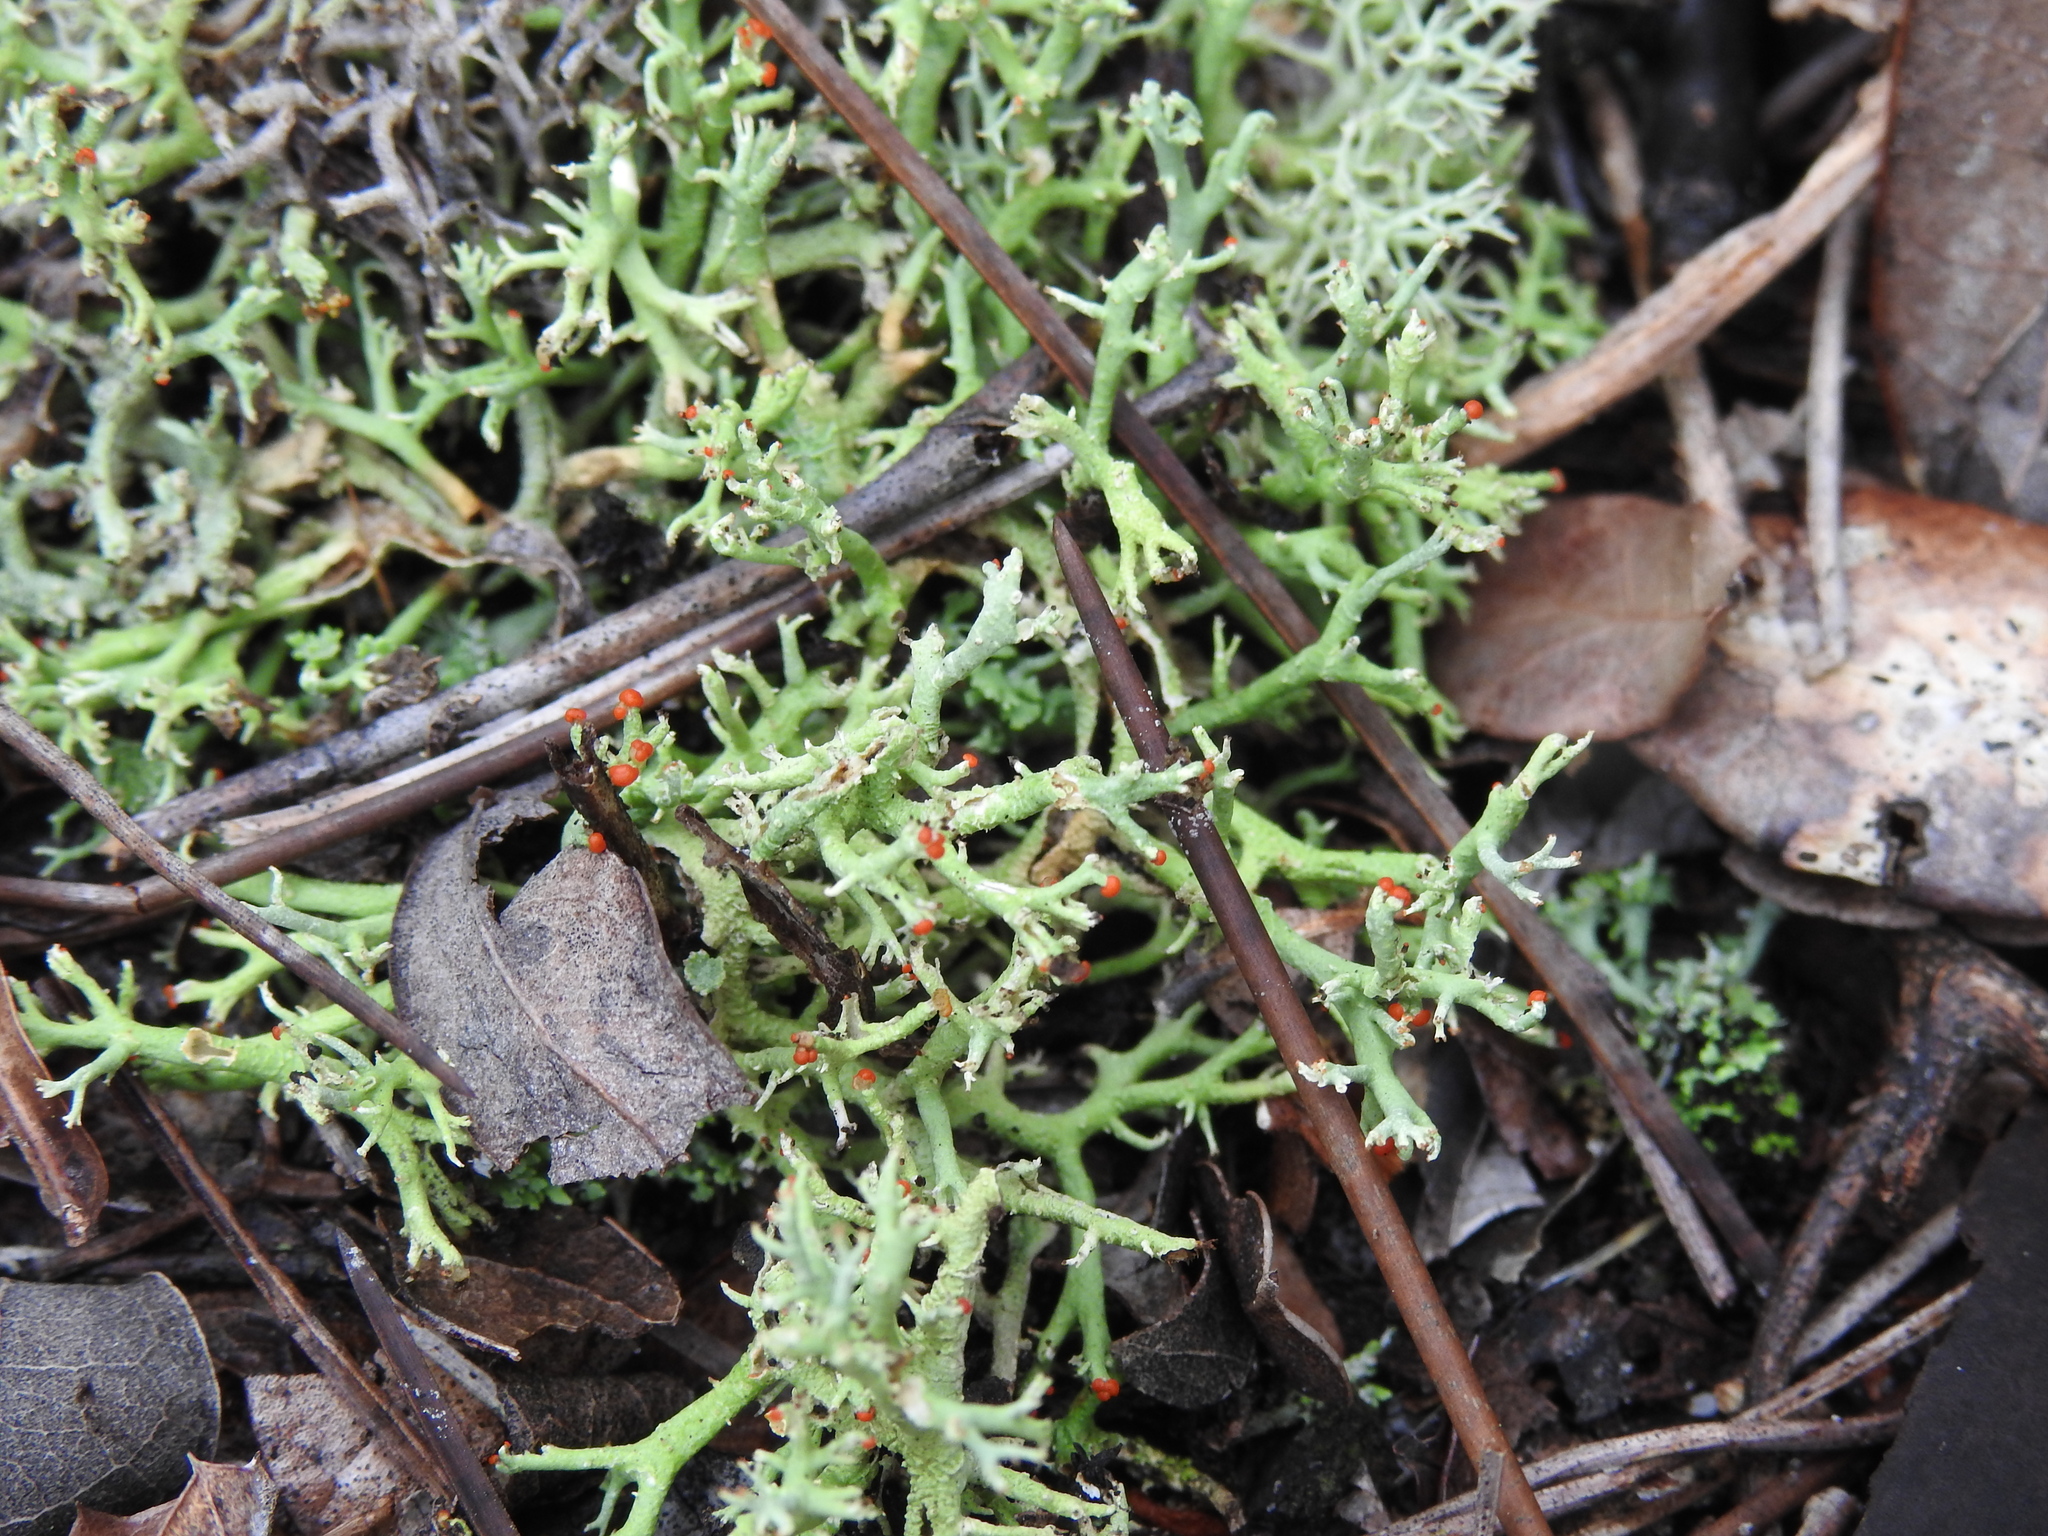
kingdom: Fungi
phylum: Ascomycota
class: Lecanoromycetes
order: Lecanorales
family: Cladoniaceae
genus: Cladonia
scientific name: Cladonia leporina
